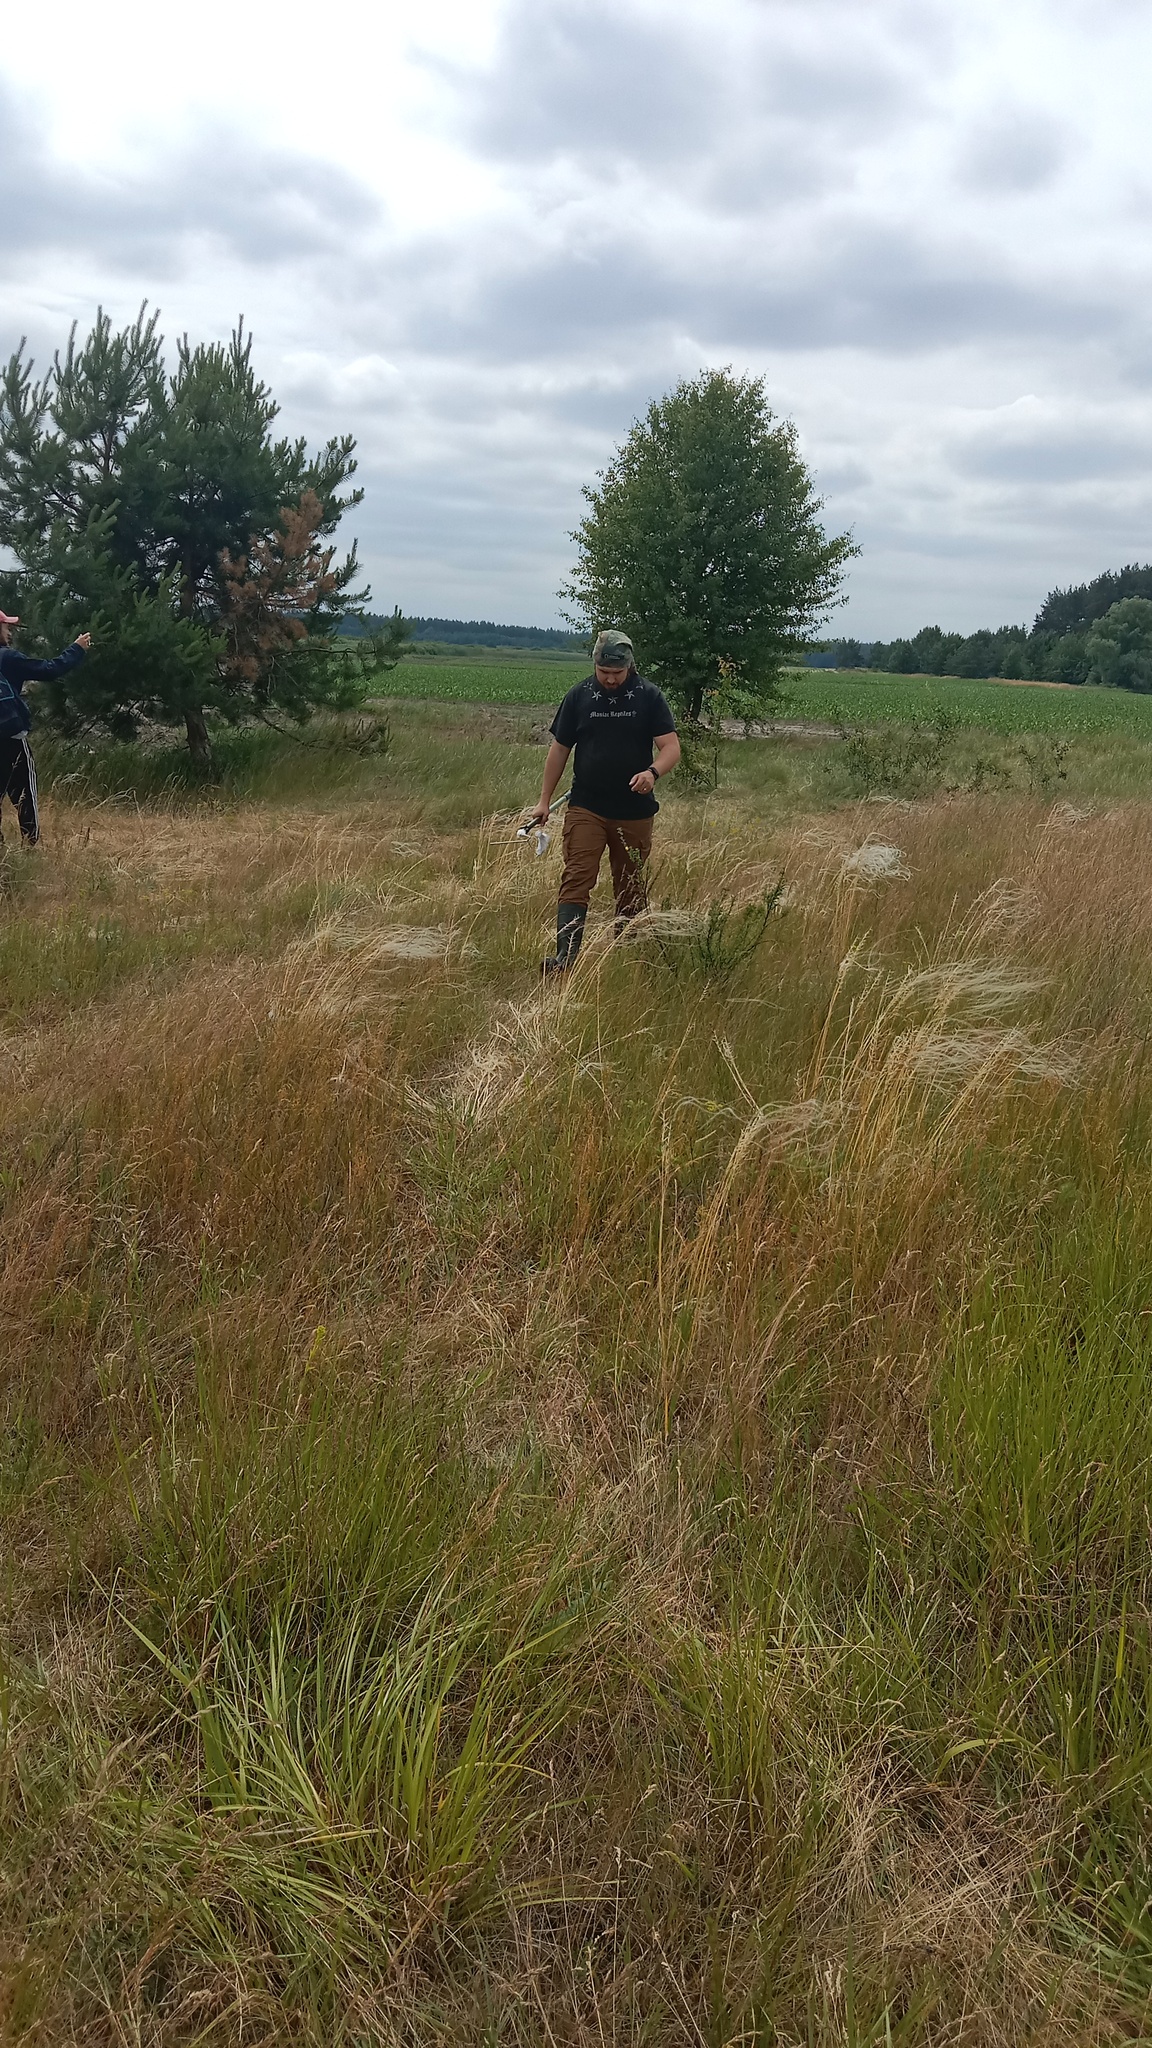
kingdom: Plantae
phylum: Tracheophyta
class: Liliopsida
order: Poales
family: Poaceae
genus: Stipa
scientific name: Stipa borysthenica
